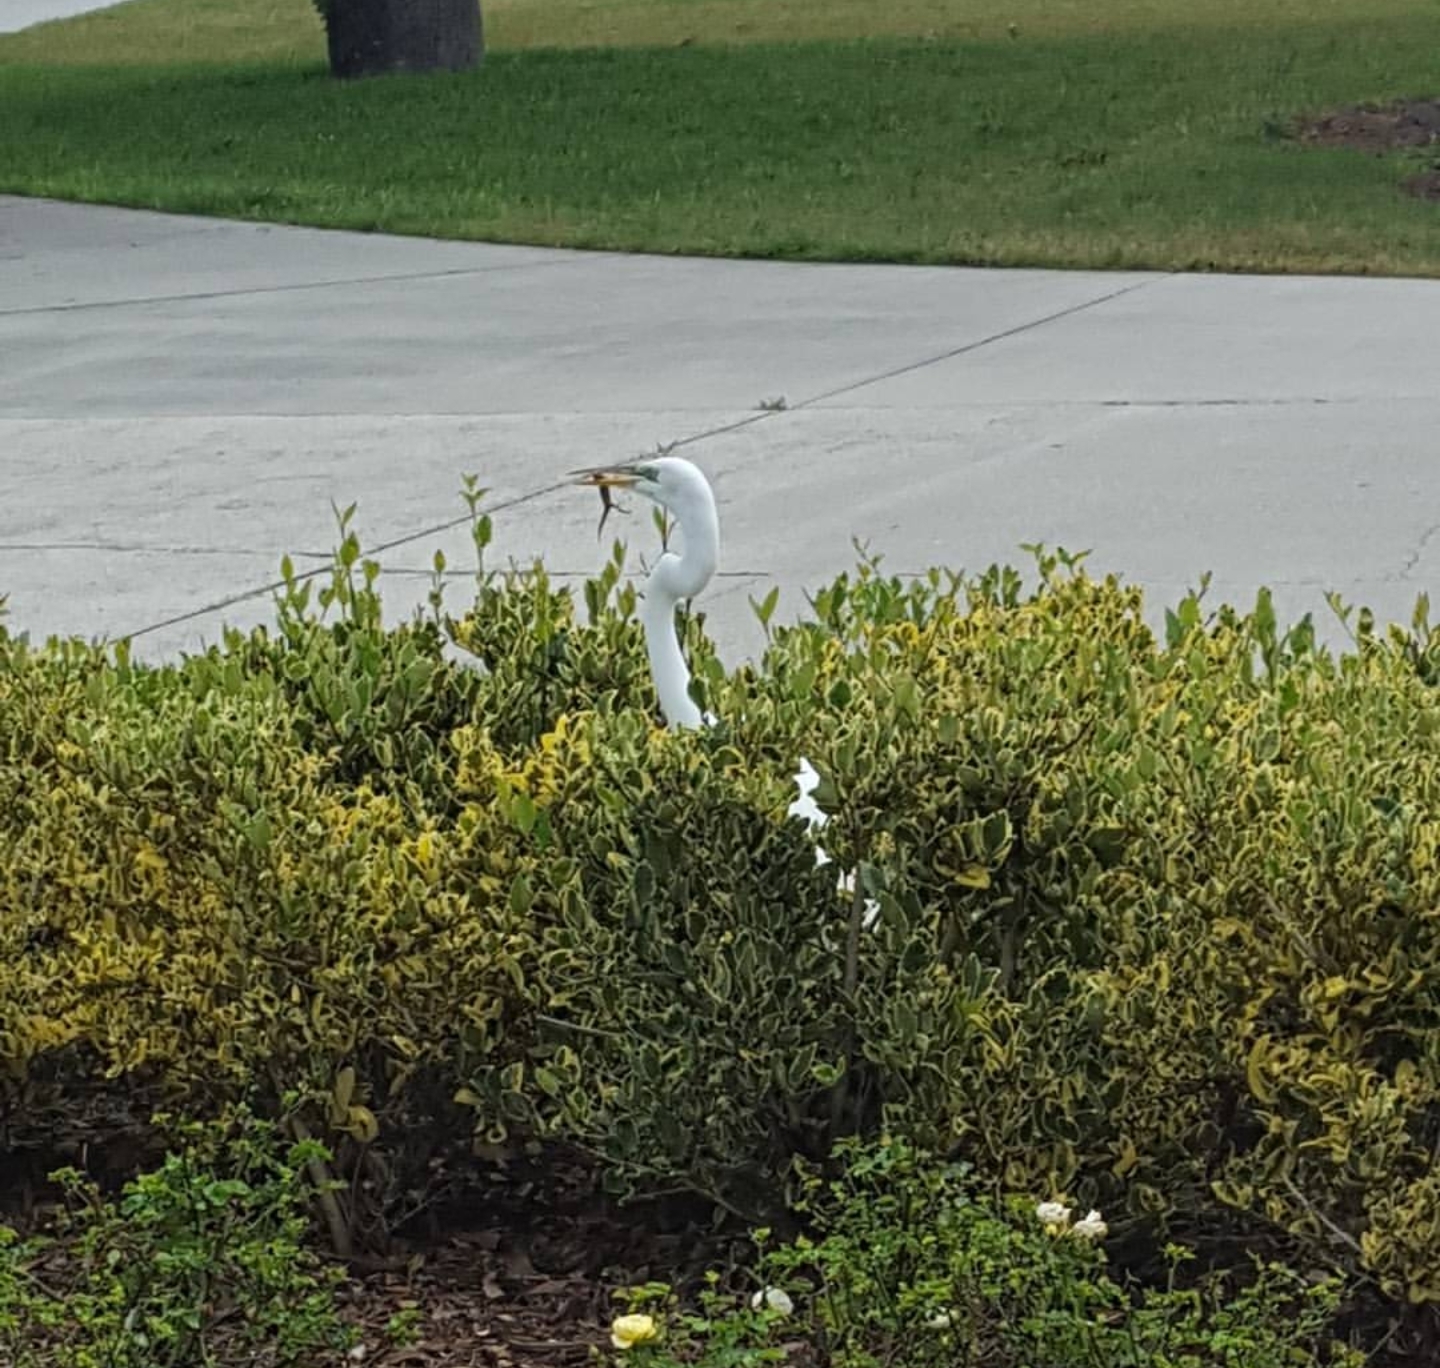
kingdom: Animalia
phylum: Chordata
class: Aves
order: Pelecaniformes
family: Ardeidae
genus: Ardea
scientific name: Ardea alba
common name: Great egret
